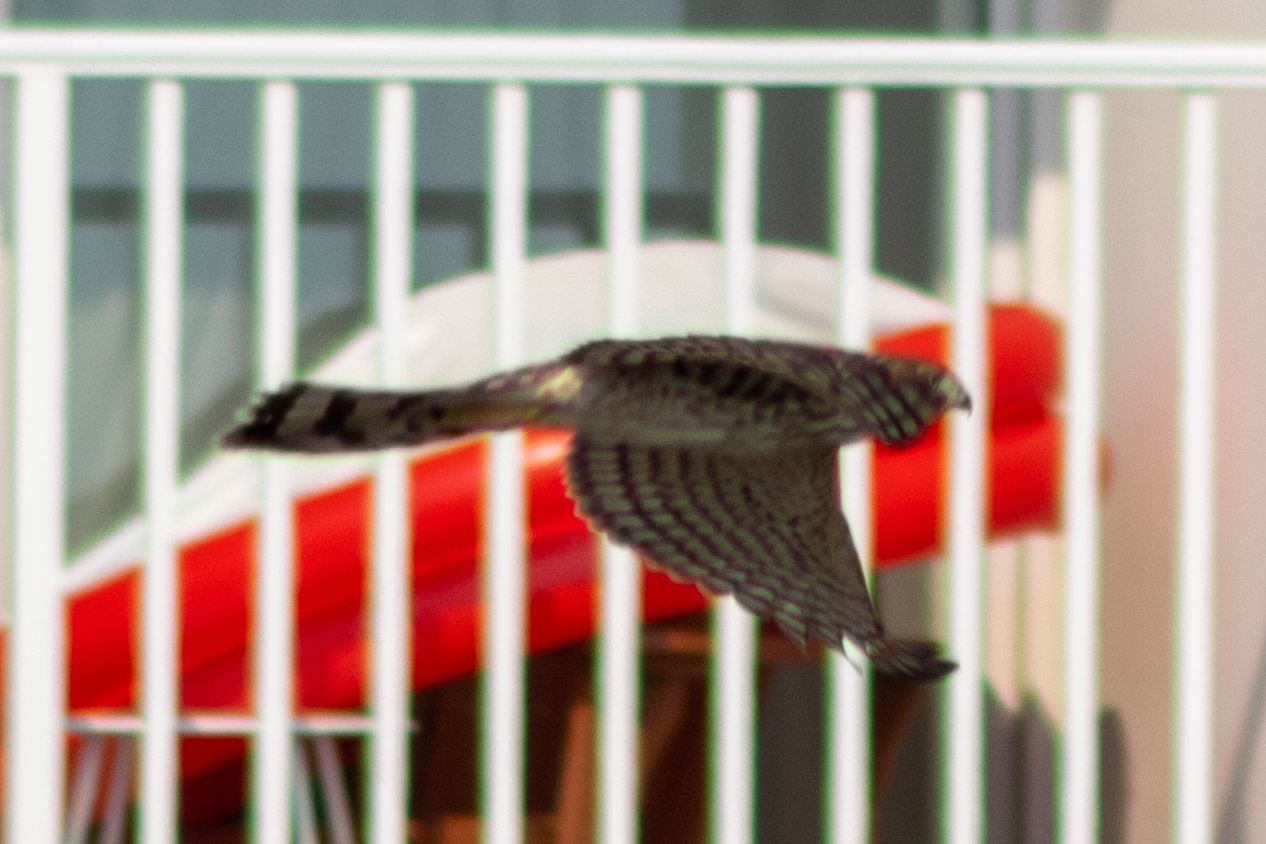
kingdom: Animalia
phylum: Chordata
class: Aves
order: Accipitriformes
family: Accipitridae
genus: Accipiter
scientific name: Accipiter cooperii
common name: Cooper's hawk
